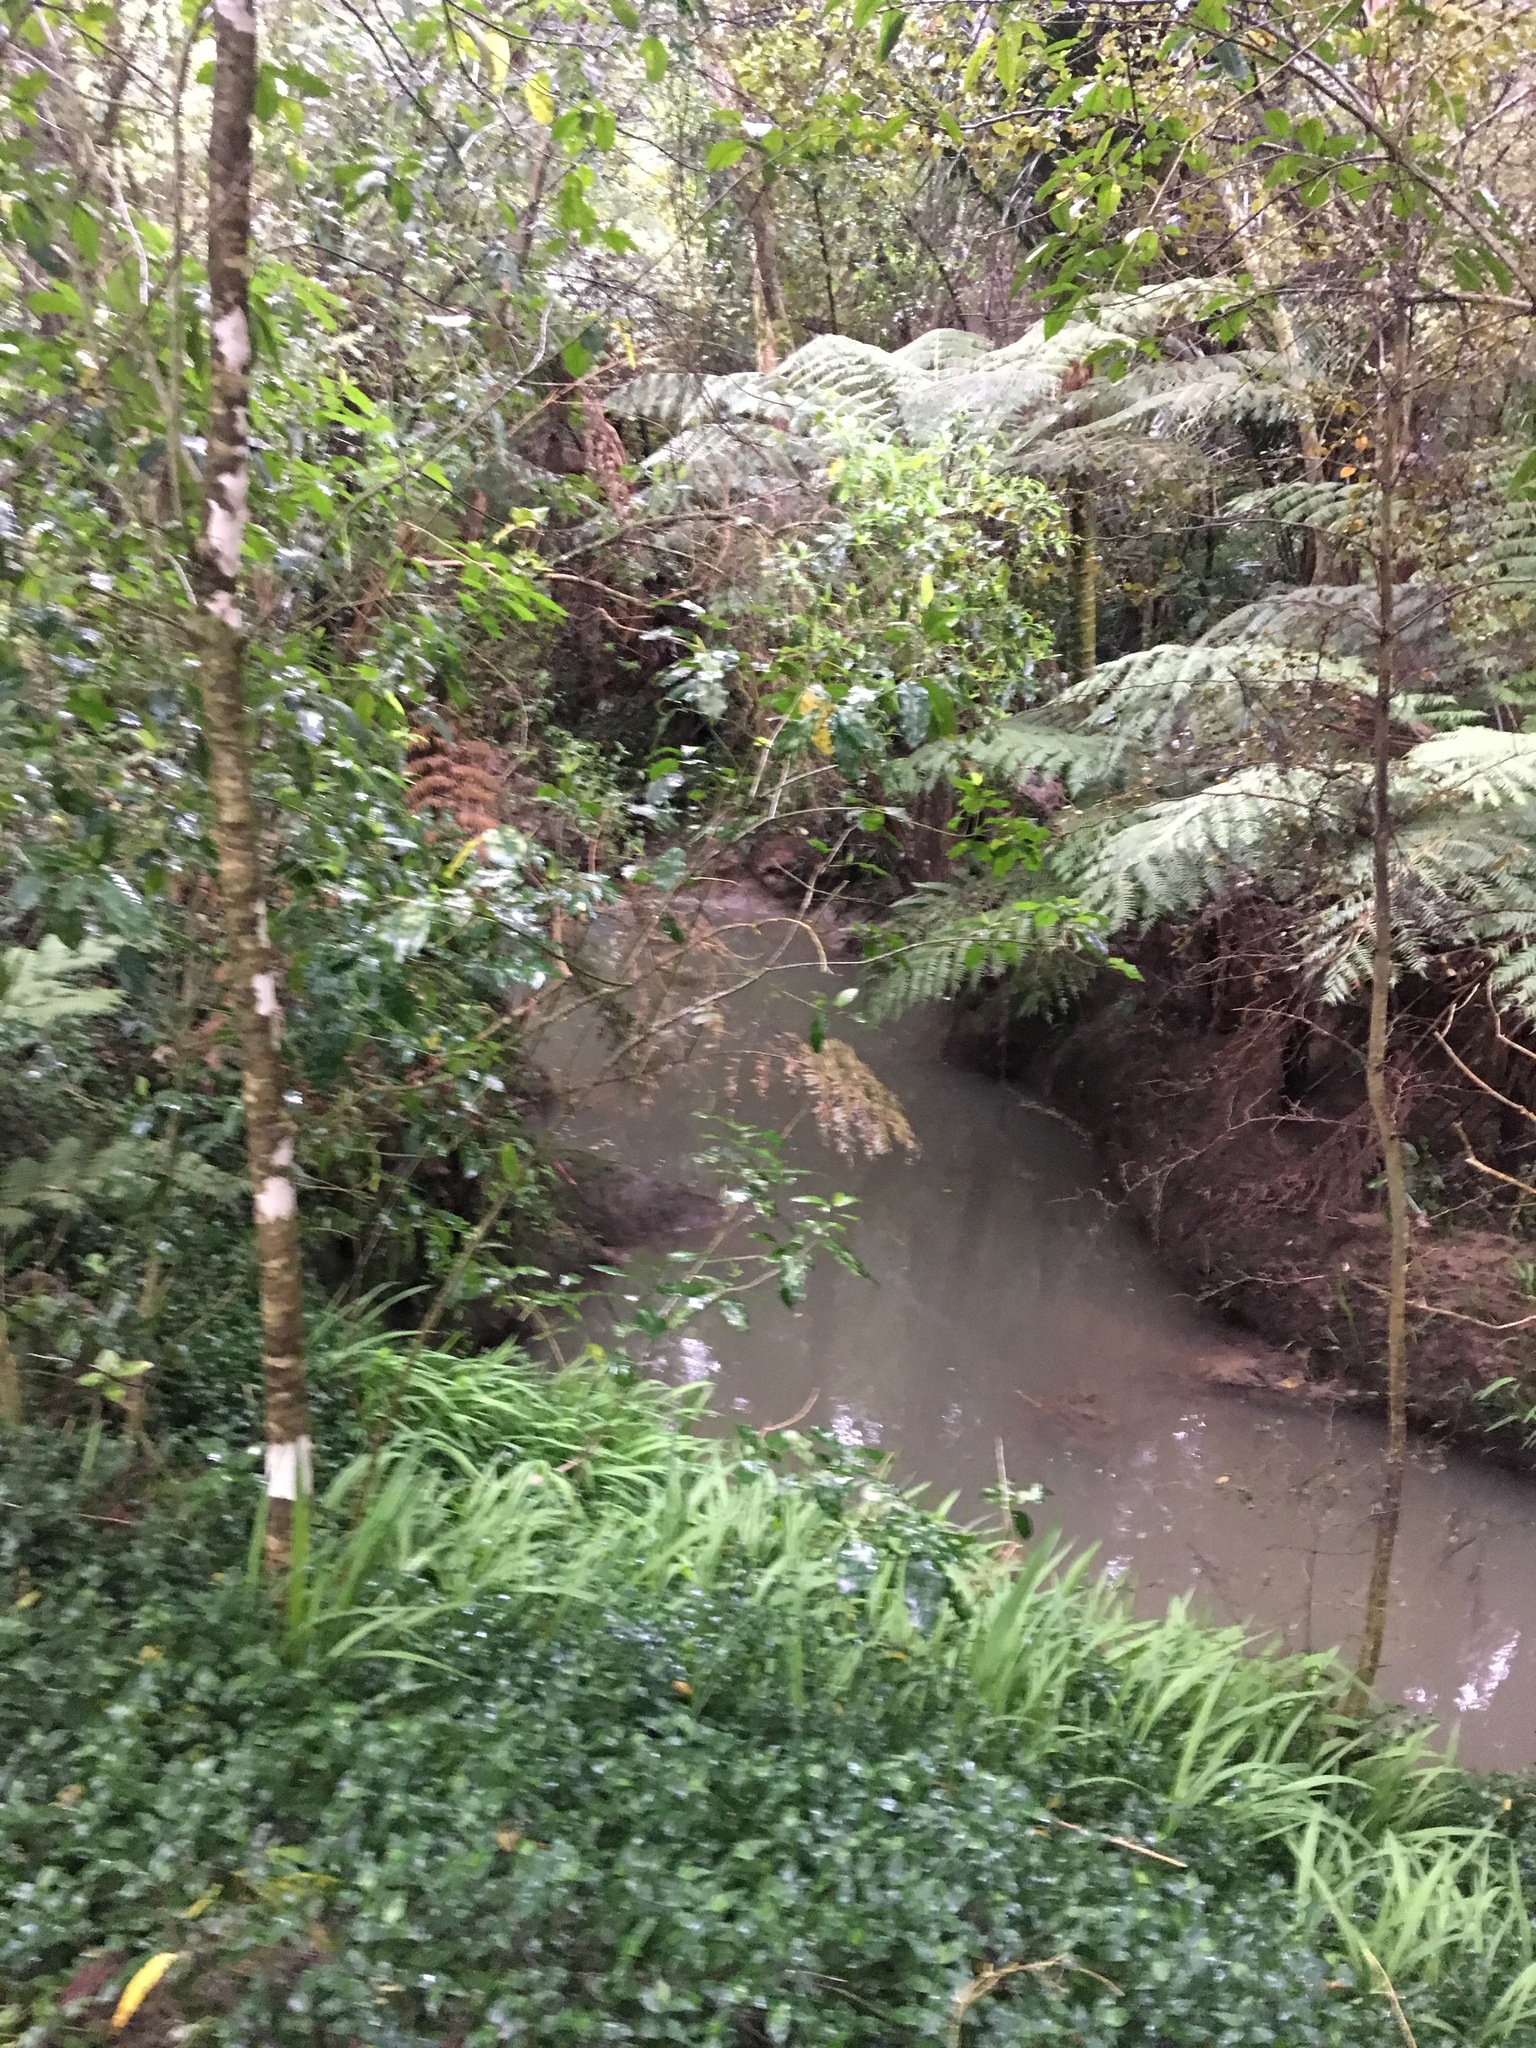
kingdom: Plantae
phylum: Tracheophyta
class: Liliopsida
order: Commelinales
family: Commelinaceae
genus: Tradescantia
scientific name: Tradescantia fluminensis
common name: Wandering-jew
